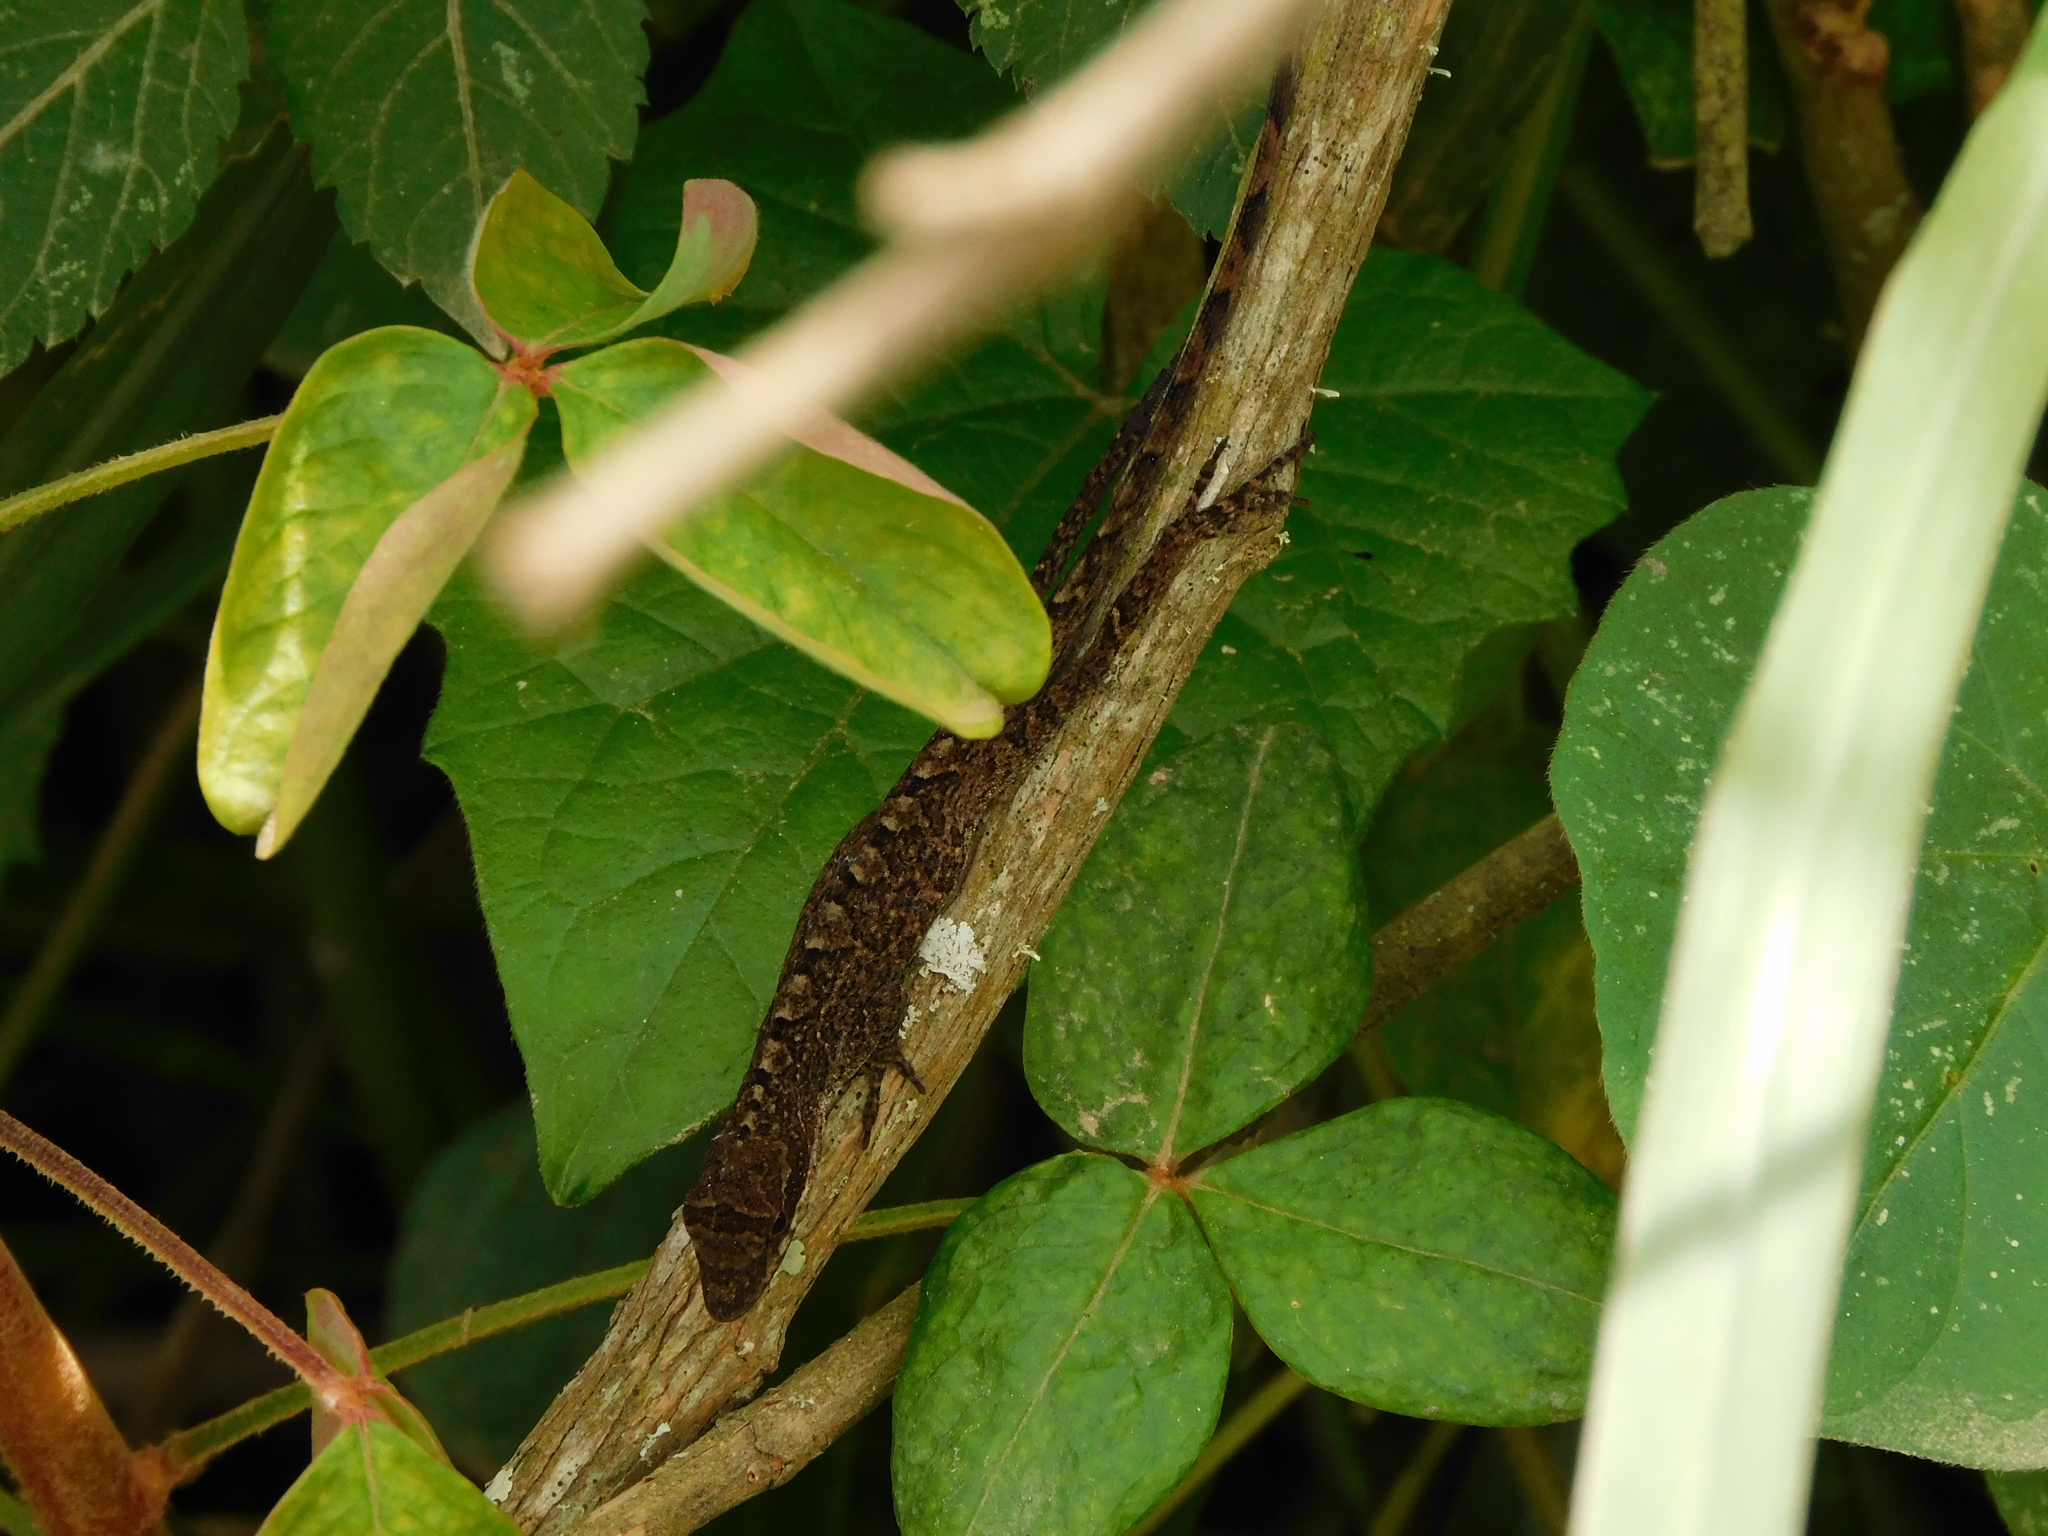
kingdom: Animalia
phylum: Chordata
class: Squamata
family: Dactyloidae
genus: Anolis
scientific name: Anolis mariarum
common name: Blemished anole
